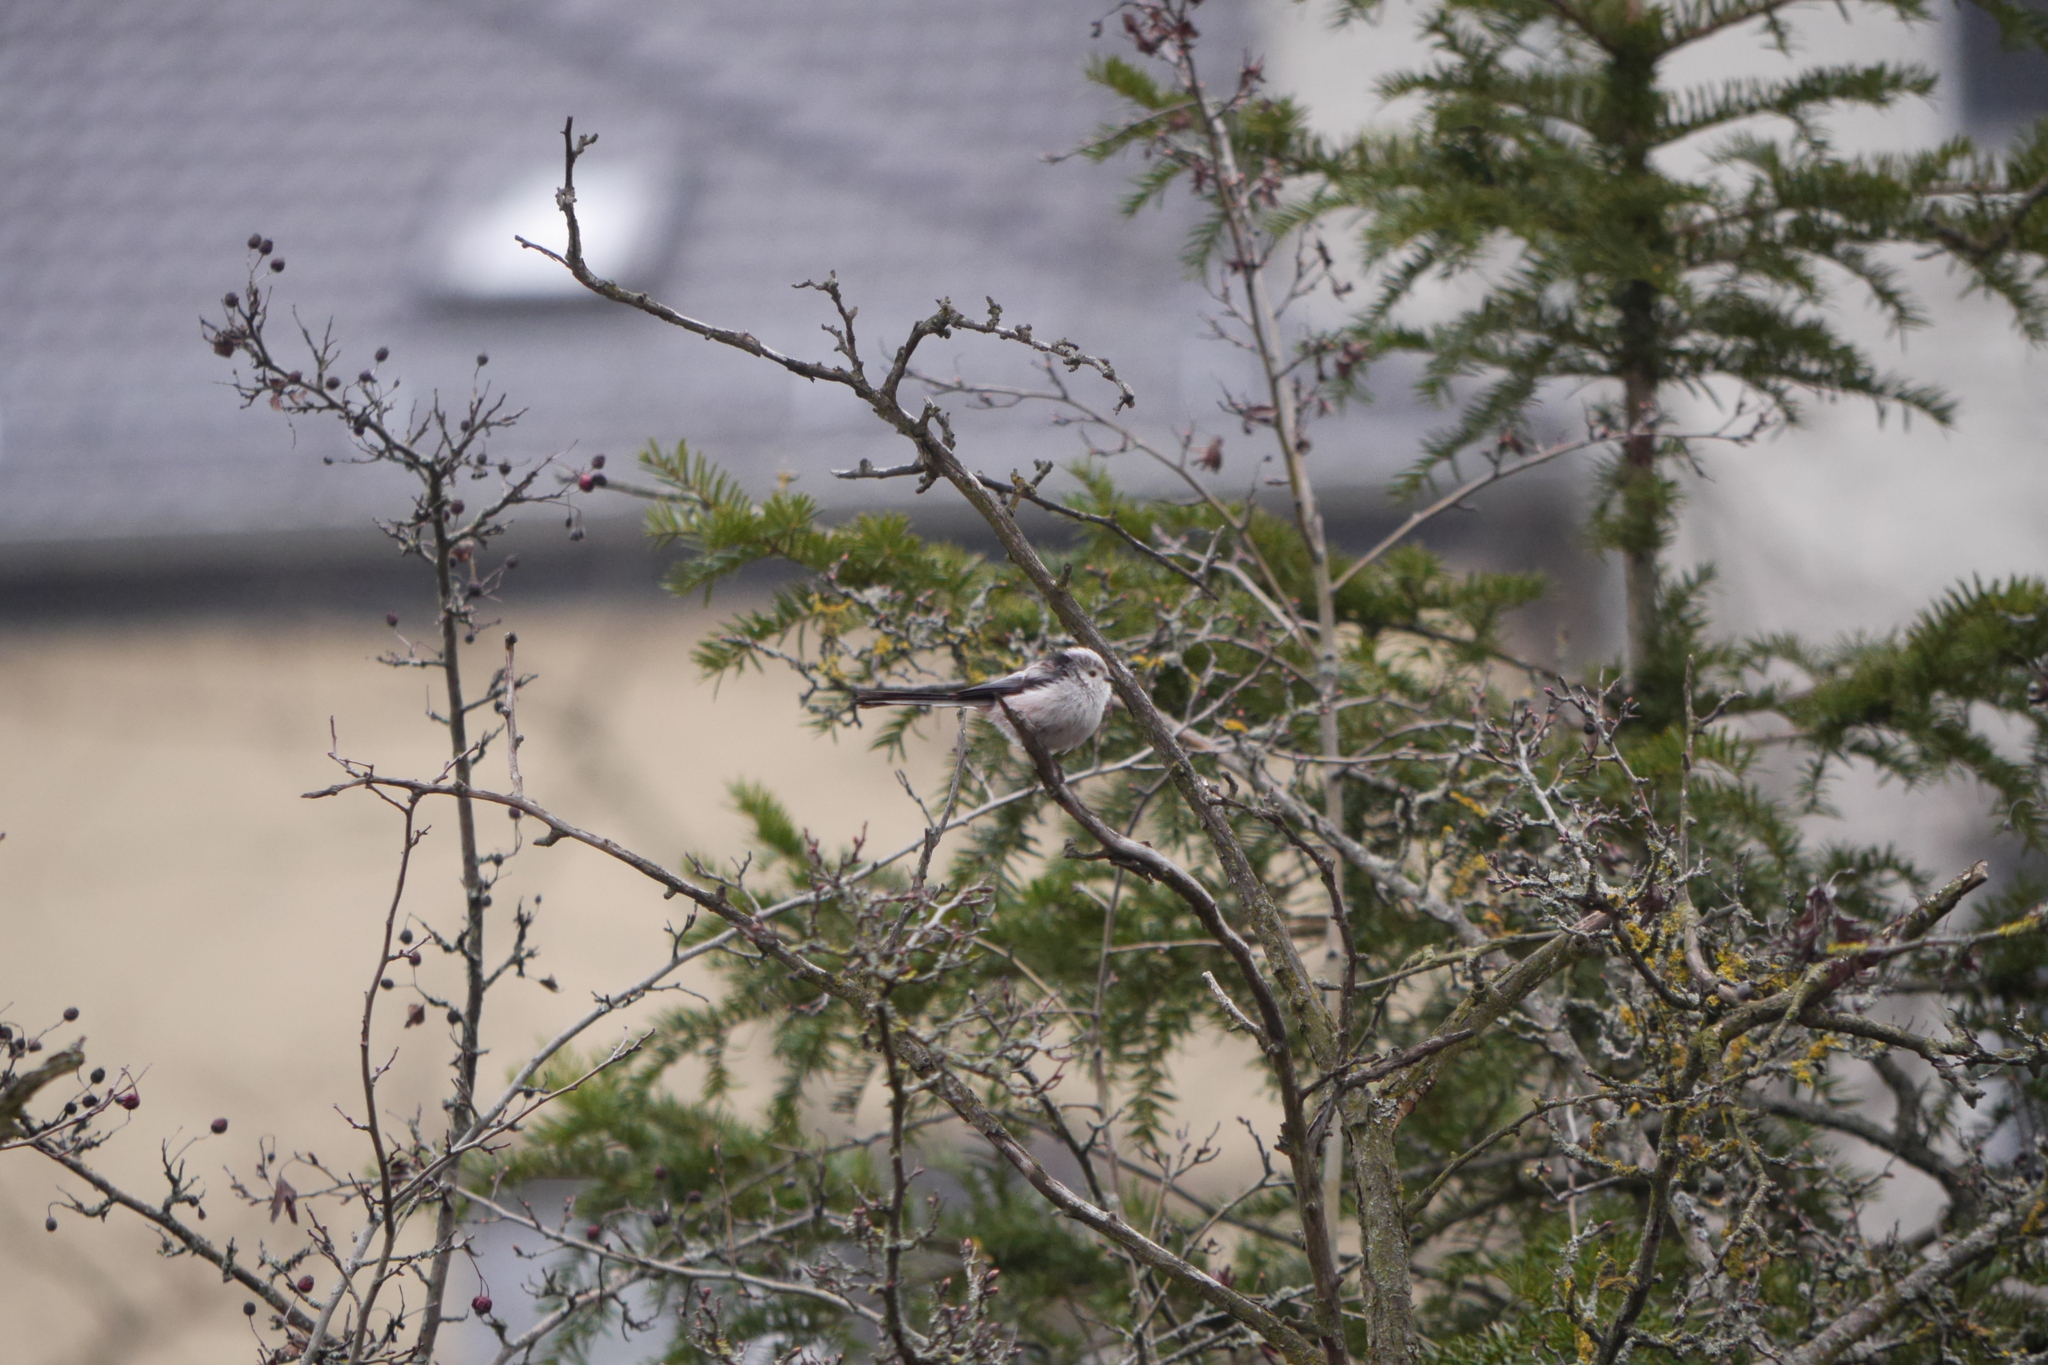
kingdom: Animalia
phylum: Chordata
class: Aves
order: Passeriformes
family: Aegithalidae
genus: Aegithalos
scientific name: Aegithalos caudatus
